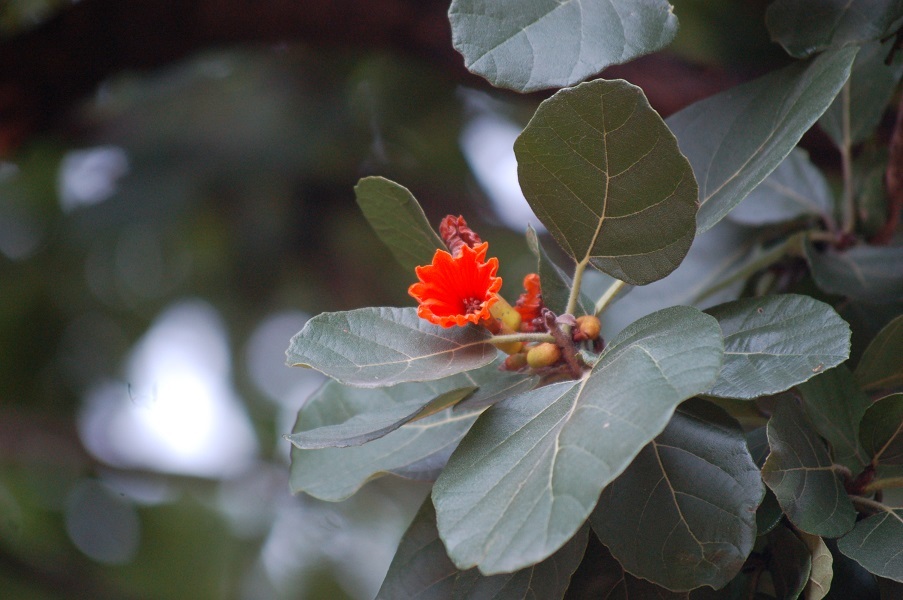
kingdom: Plantae
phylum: Tracheophyta
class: Magnoliopsida
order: Boraginales
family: Cordiaceae
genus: Cordia
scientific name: Cordia dodecandra
